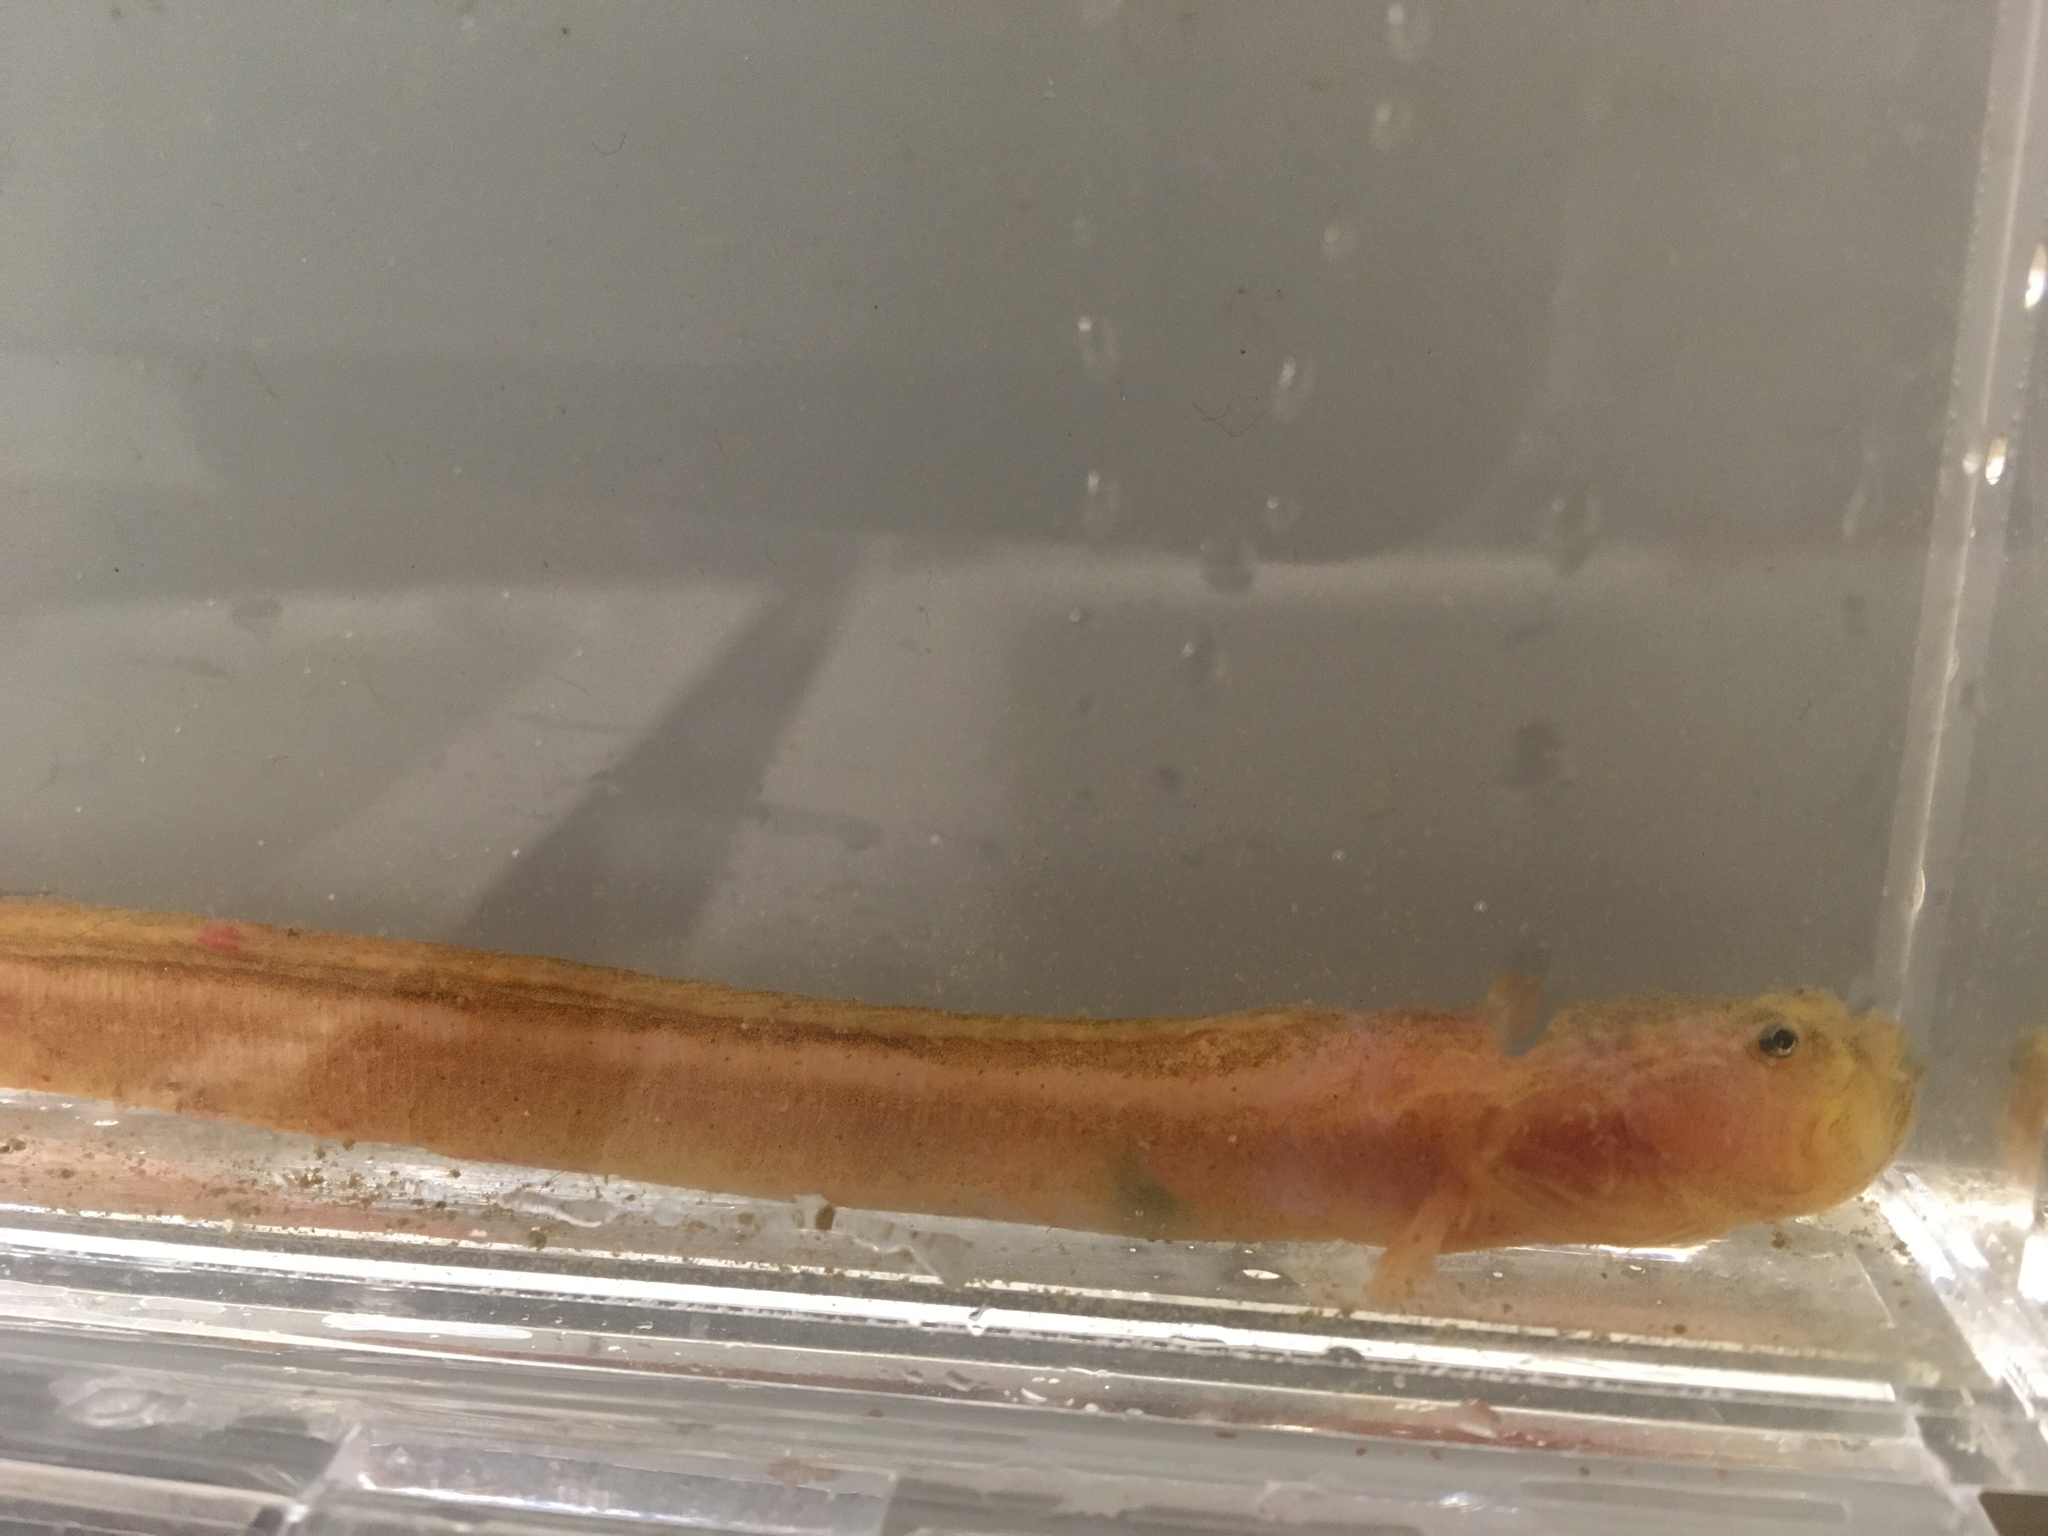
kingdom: Animalia
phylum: Chordata
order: Perciformes
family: Cryptacanthodidae
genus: Cryptacanthodes
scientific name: Cryptacanthodes aleutensis
